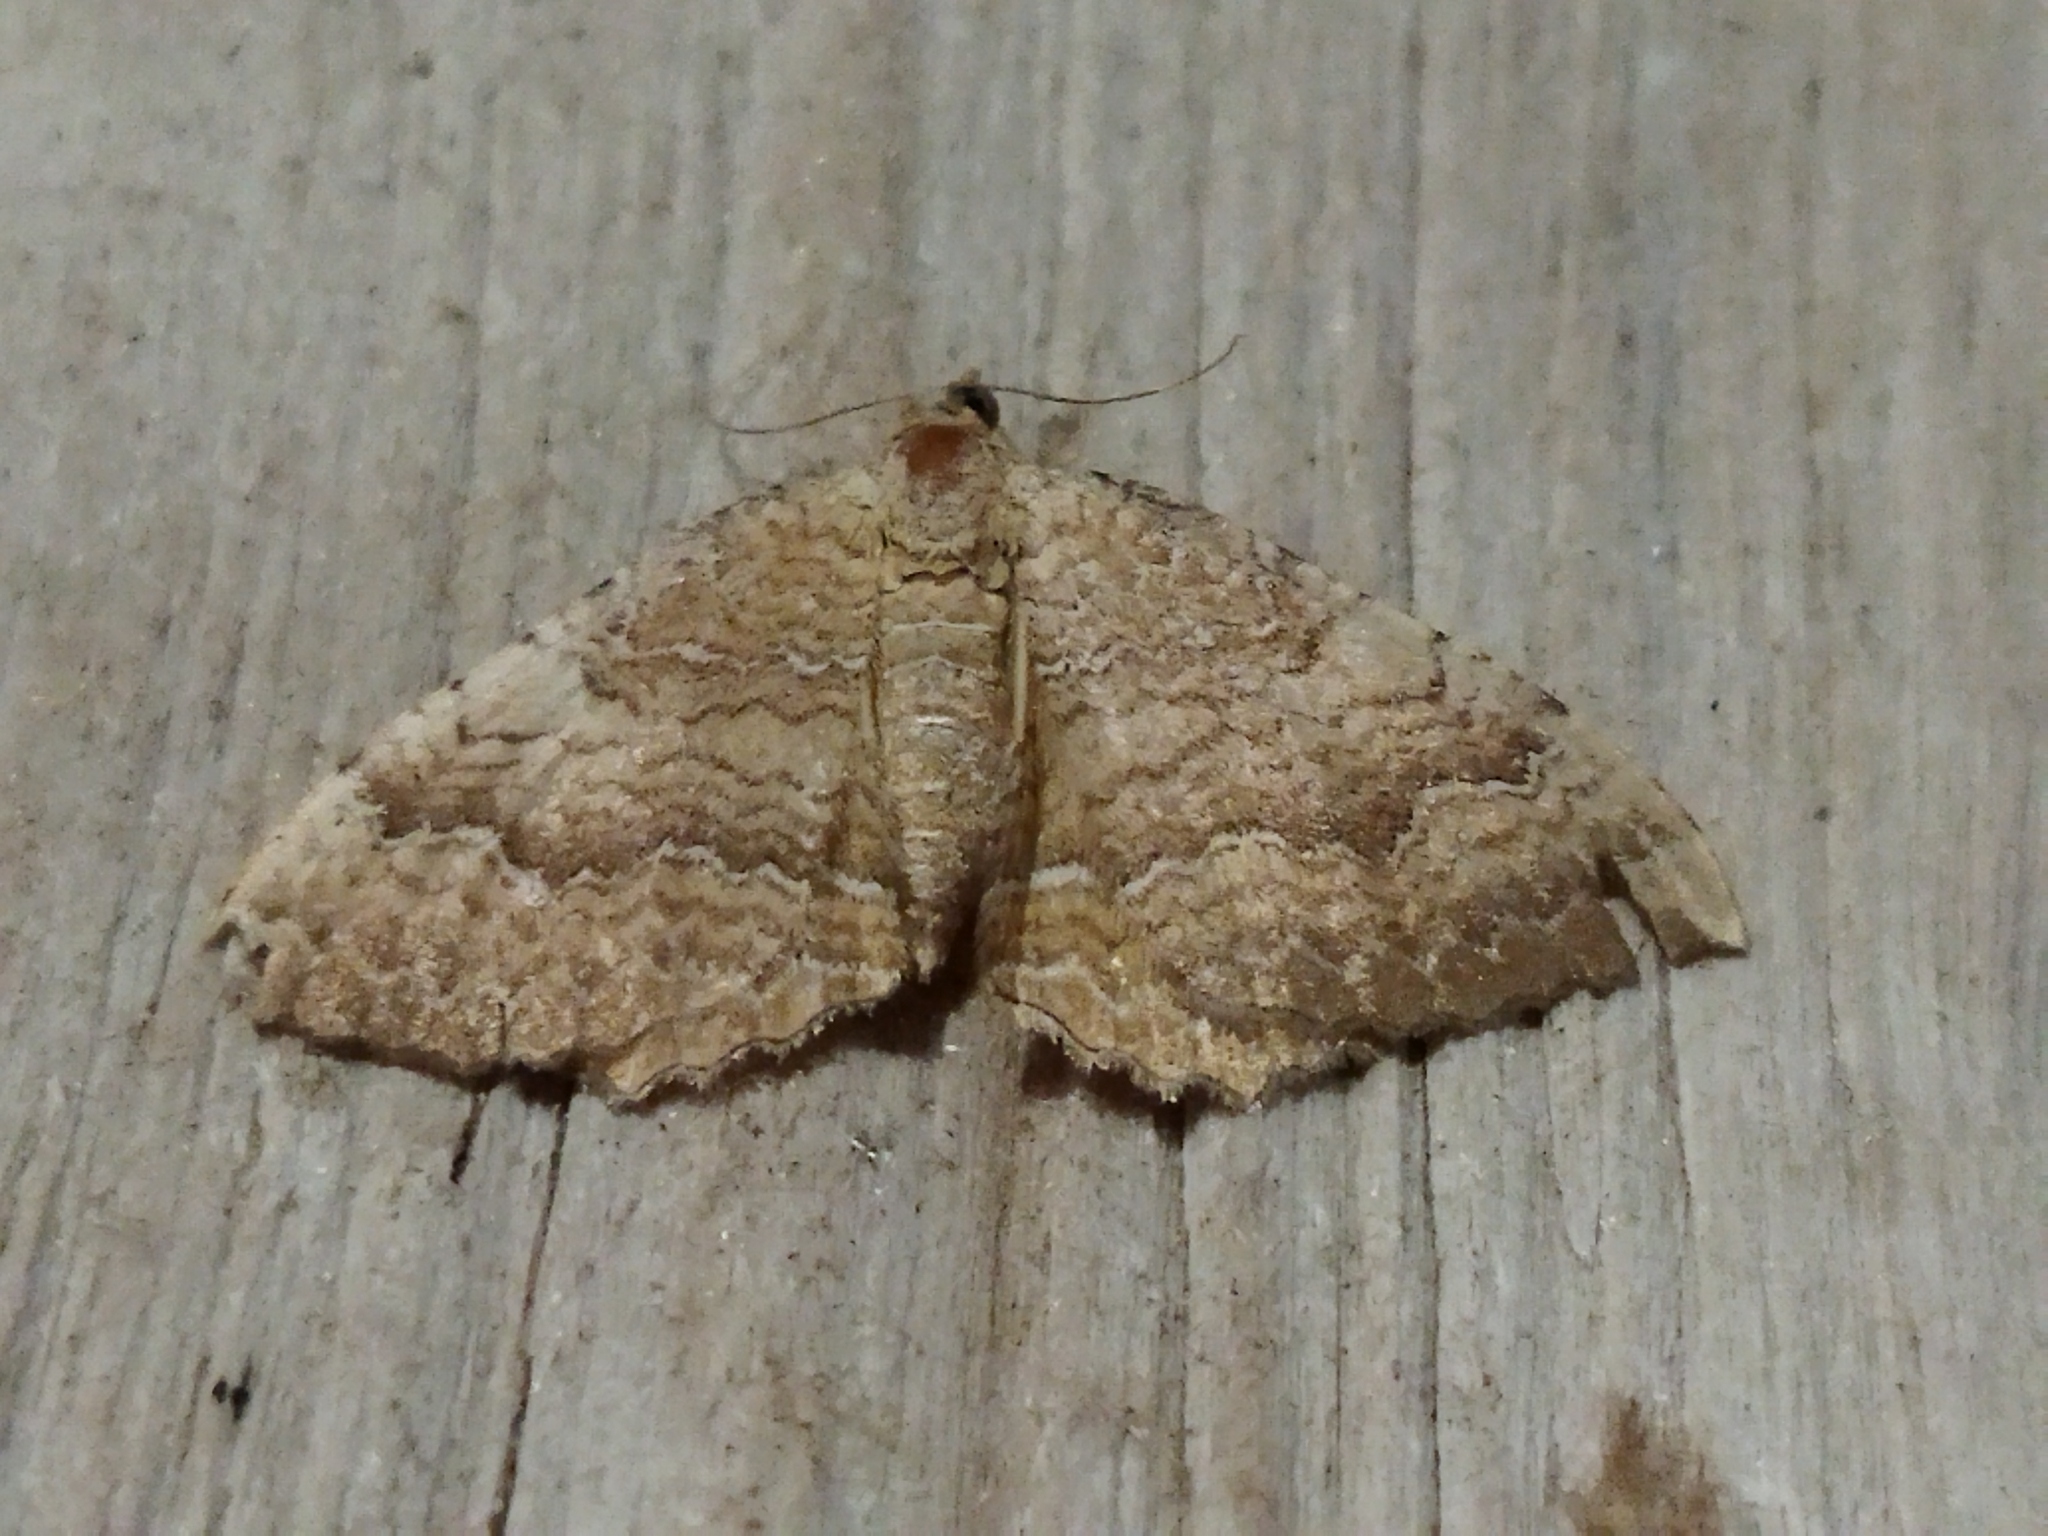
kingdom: Animalia
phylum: Arthropoda
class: Insecta
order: Lepidoptera
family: Geometridae
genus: Camptogramma
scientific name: Camptogramma bilineata
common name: Yellow shell
